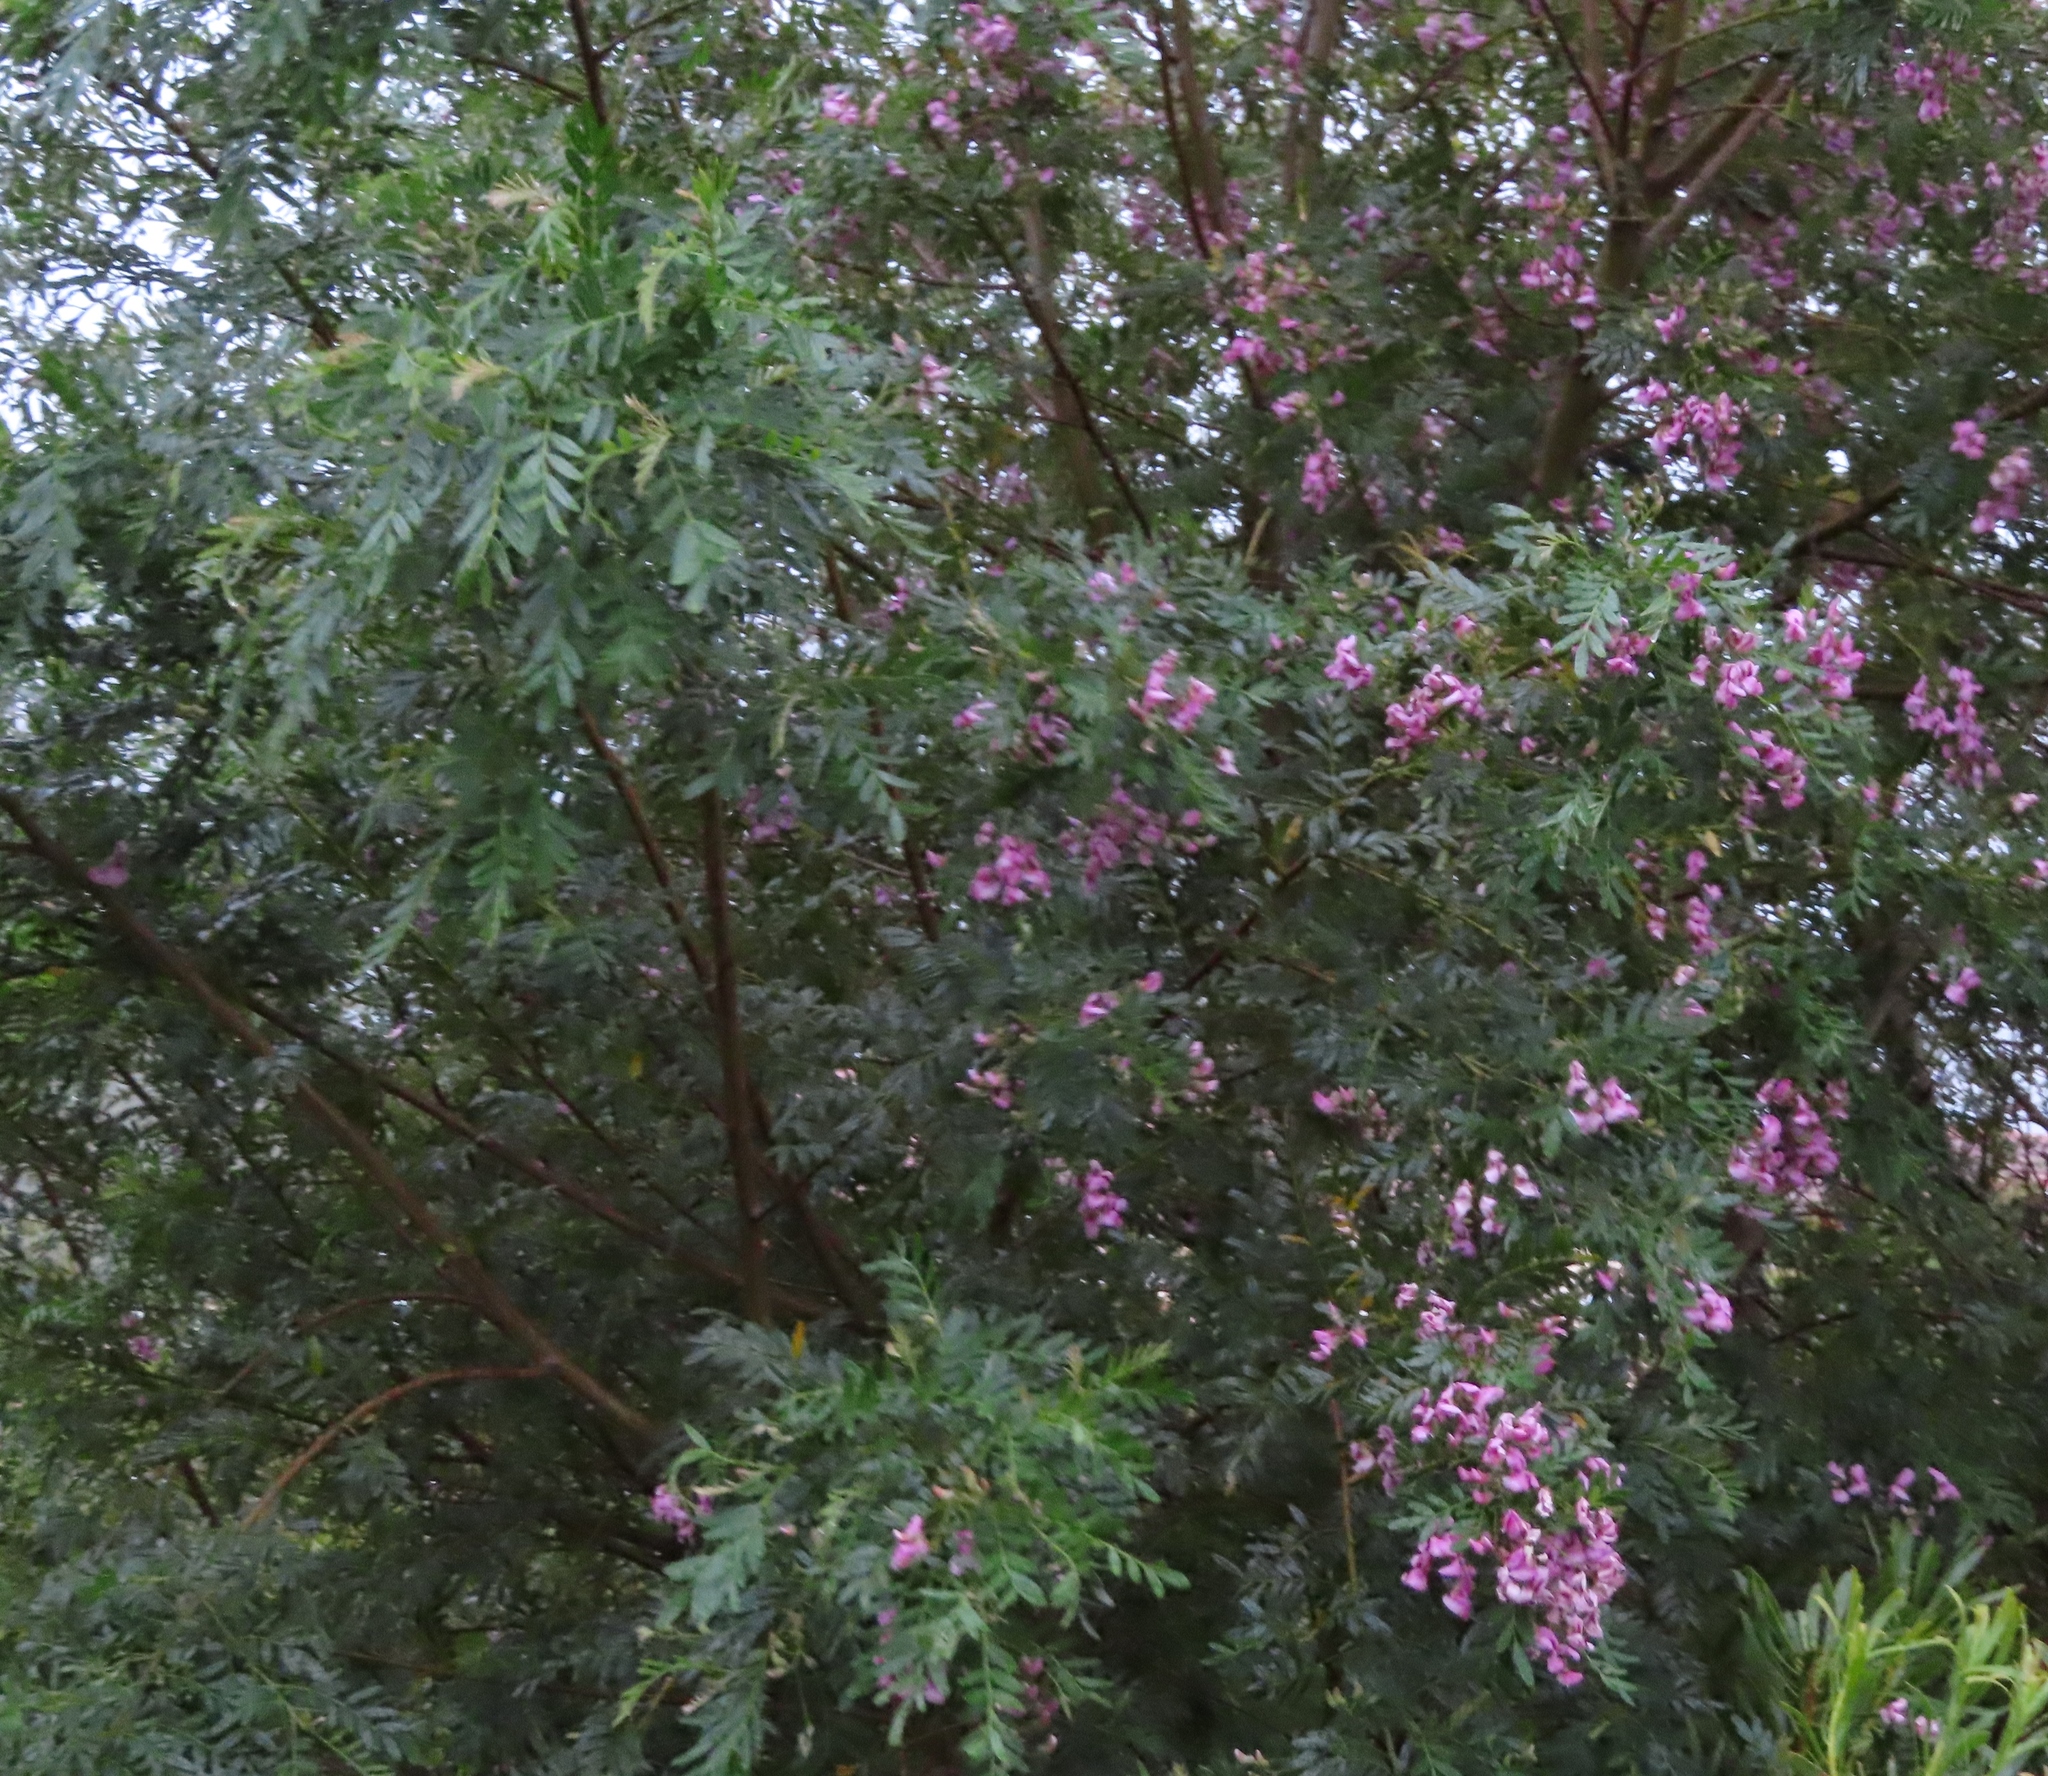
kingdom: Plantae
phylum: Tracheophyta
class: Magnoliopsida
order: Fabales
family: Fabaceae
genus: Virgilia
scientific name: Virgilia oroboides
